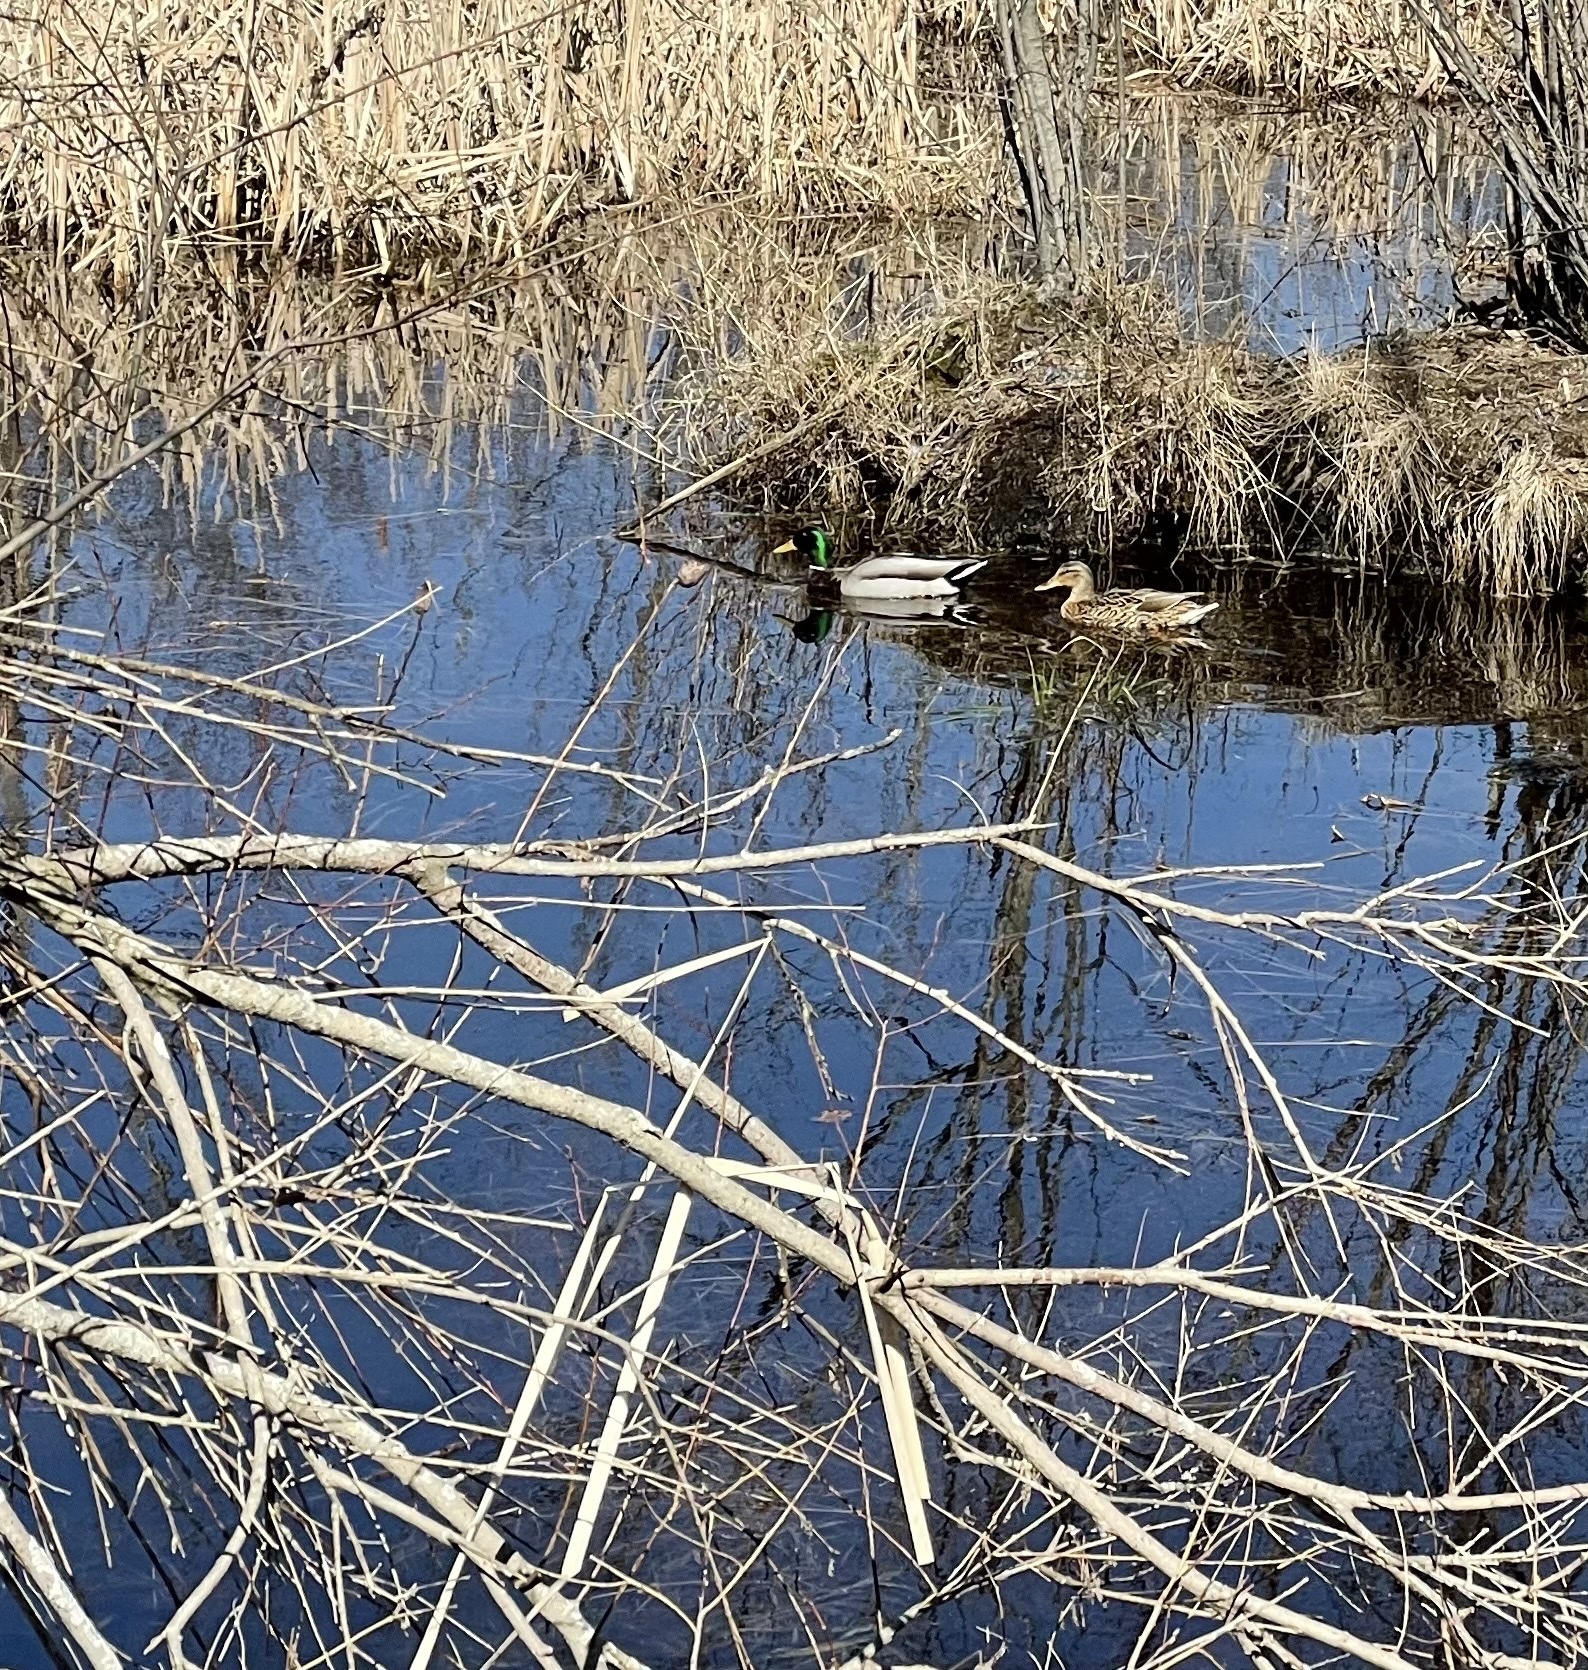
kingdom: Animalia
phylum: Chordata
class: Aves
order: Anseriformes
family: Anatidae
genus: Anas
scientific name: Anas platyrhynchos
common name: Mallard
